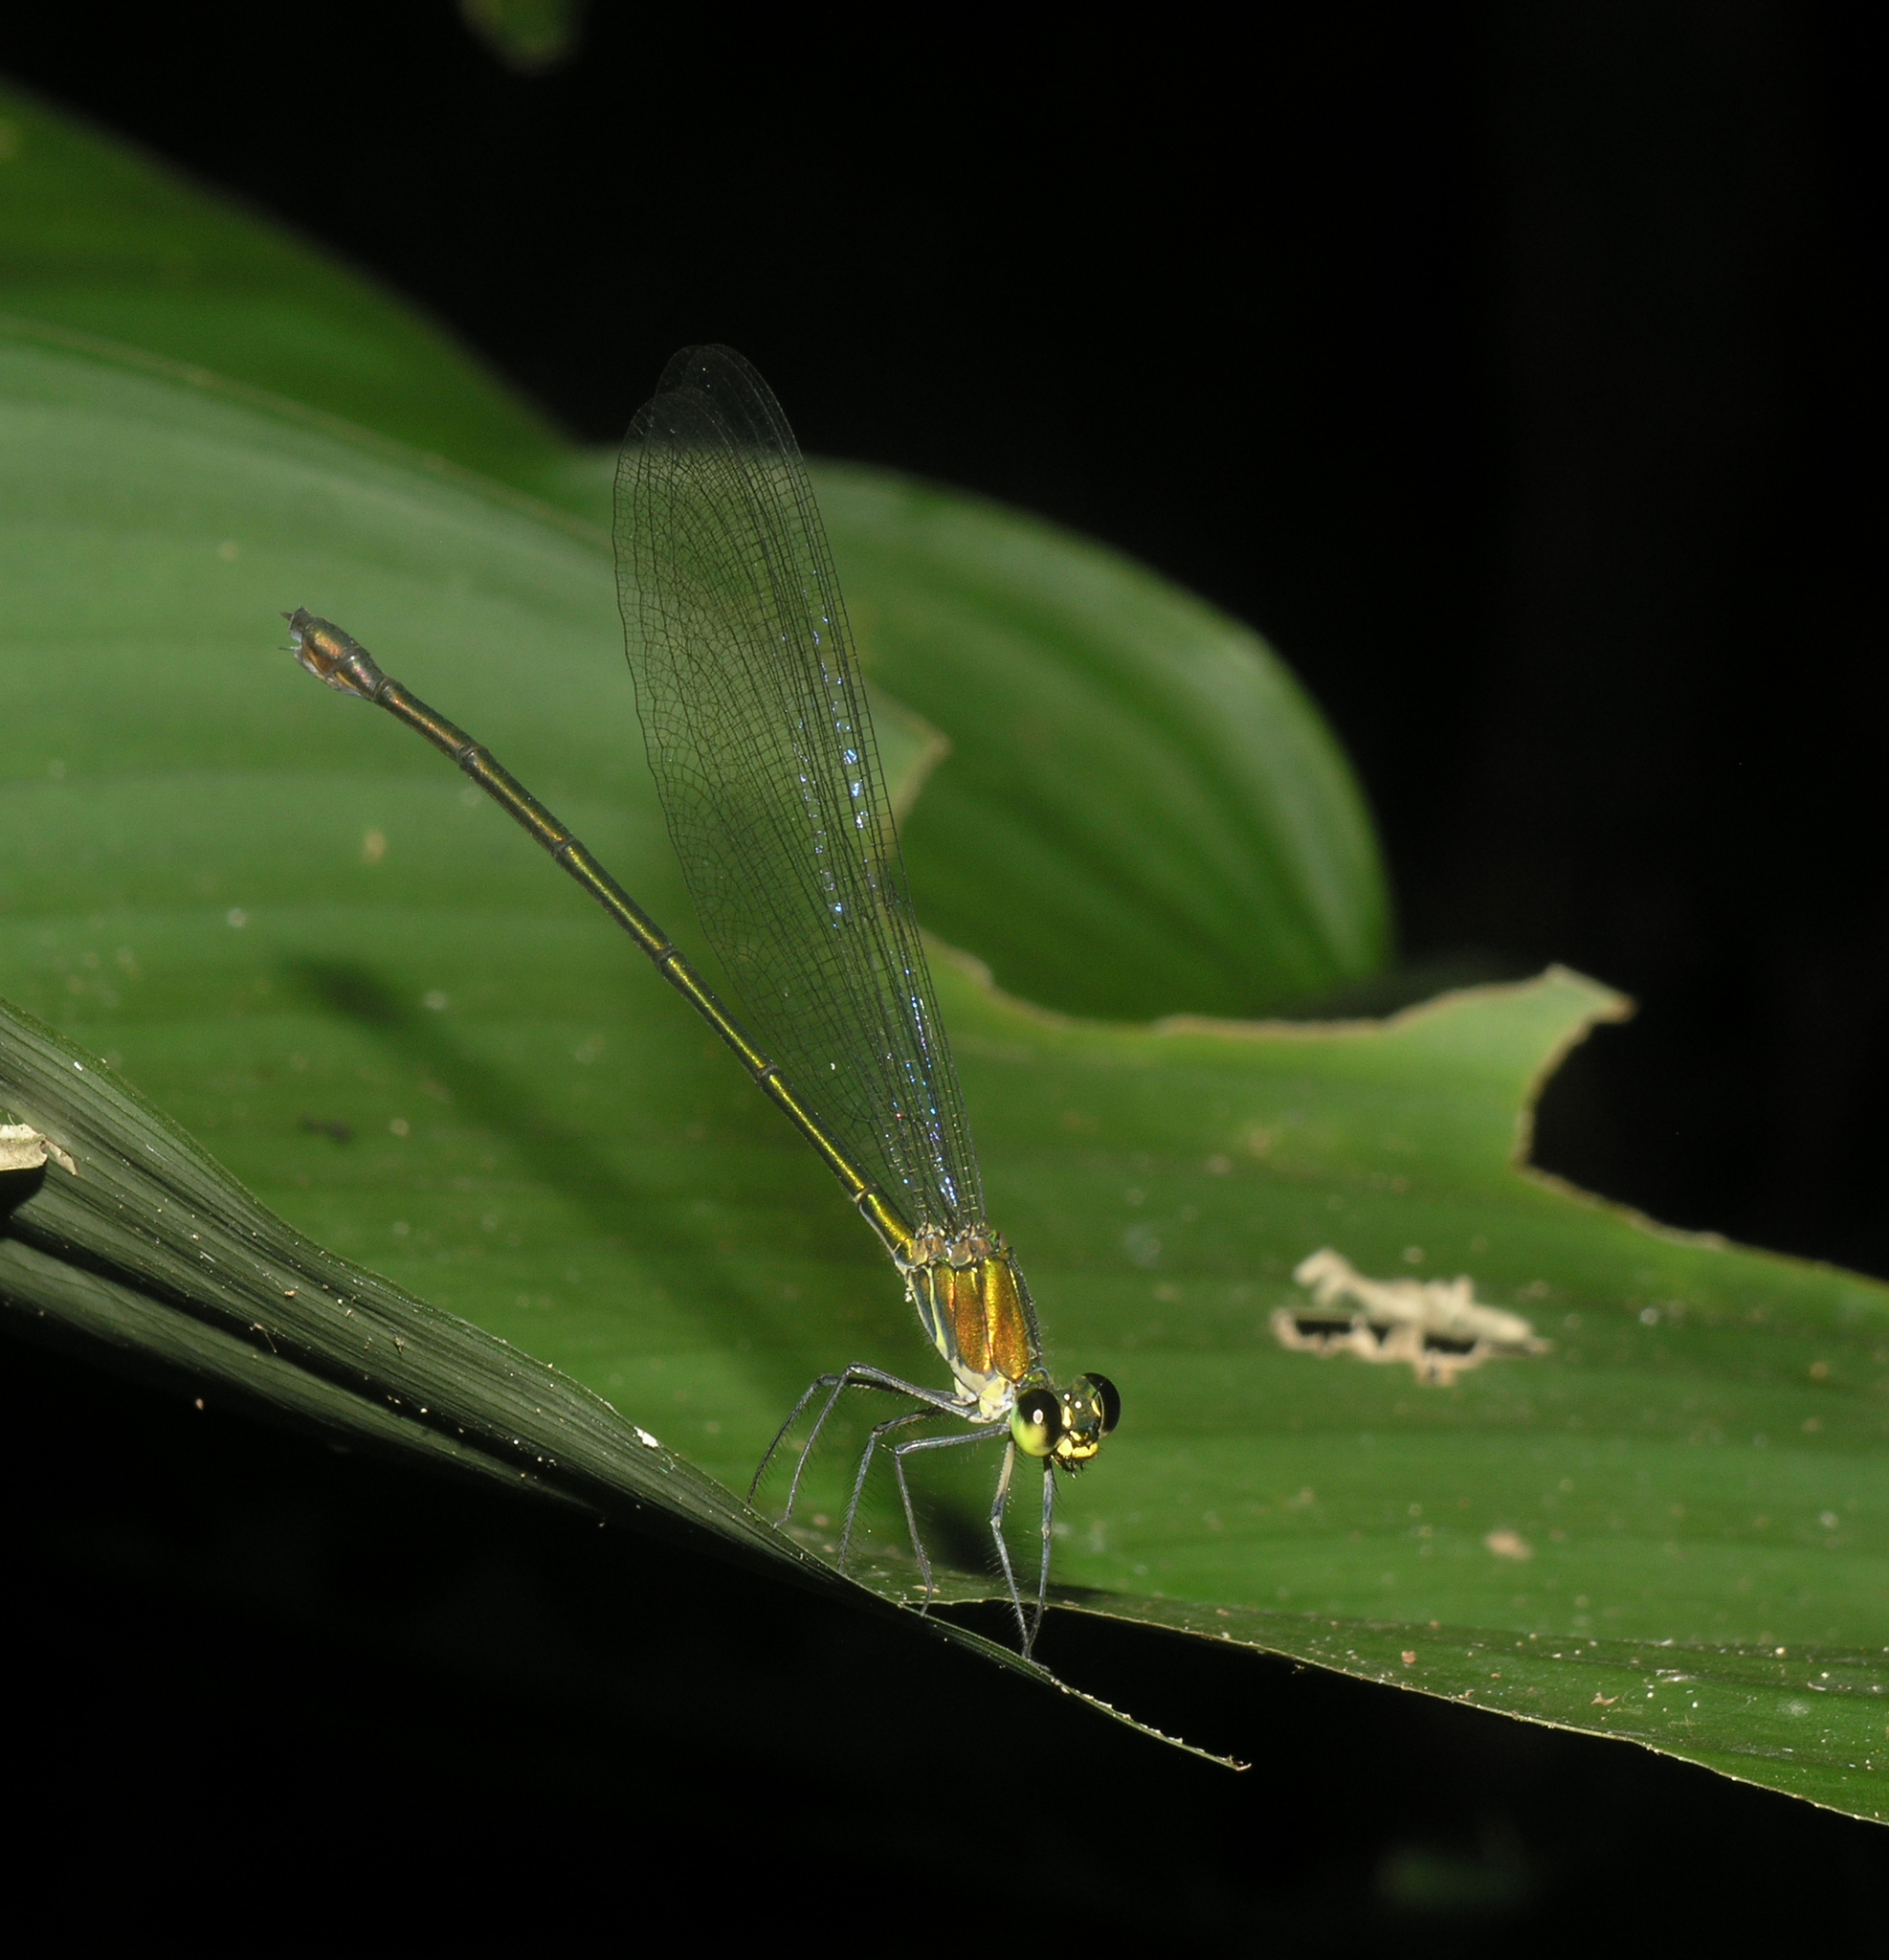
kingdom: Animalia
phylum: Arthropoda
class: Insecta
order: Odonata
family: Calopterygidae
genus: Vestalis
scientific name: Vestalis anne
